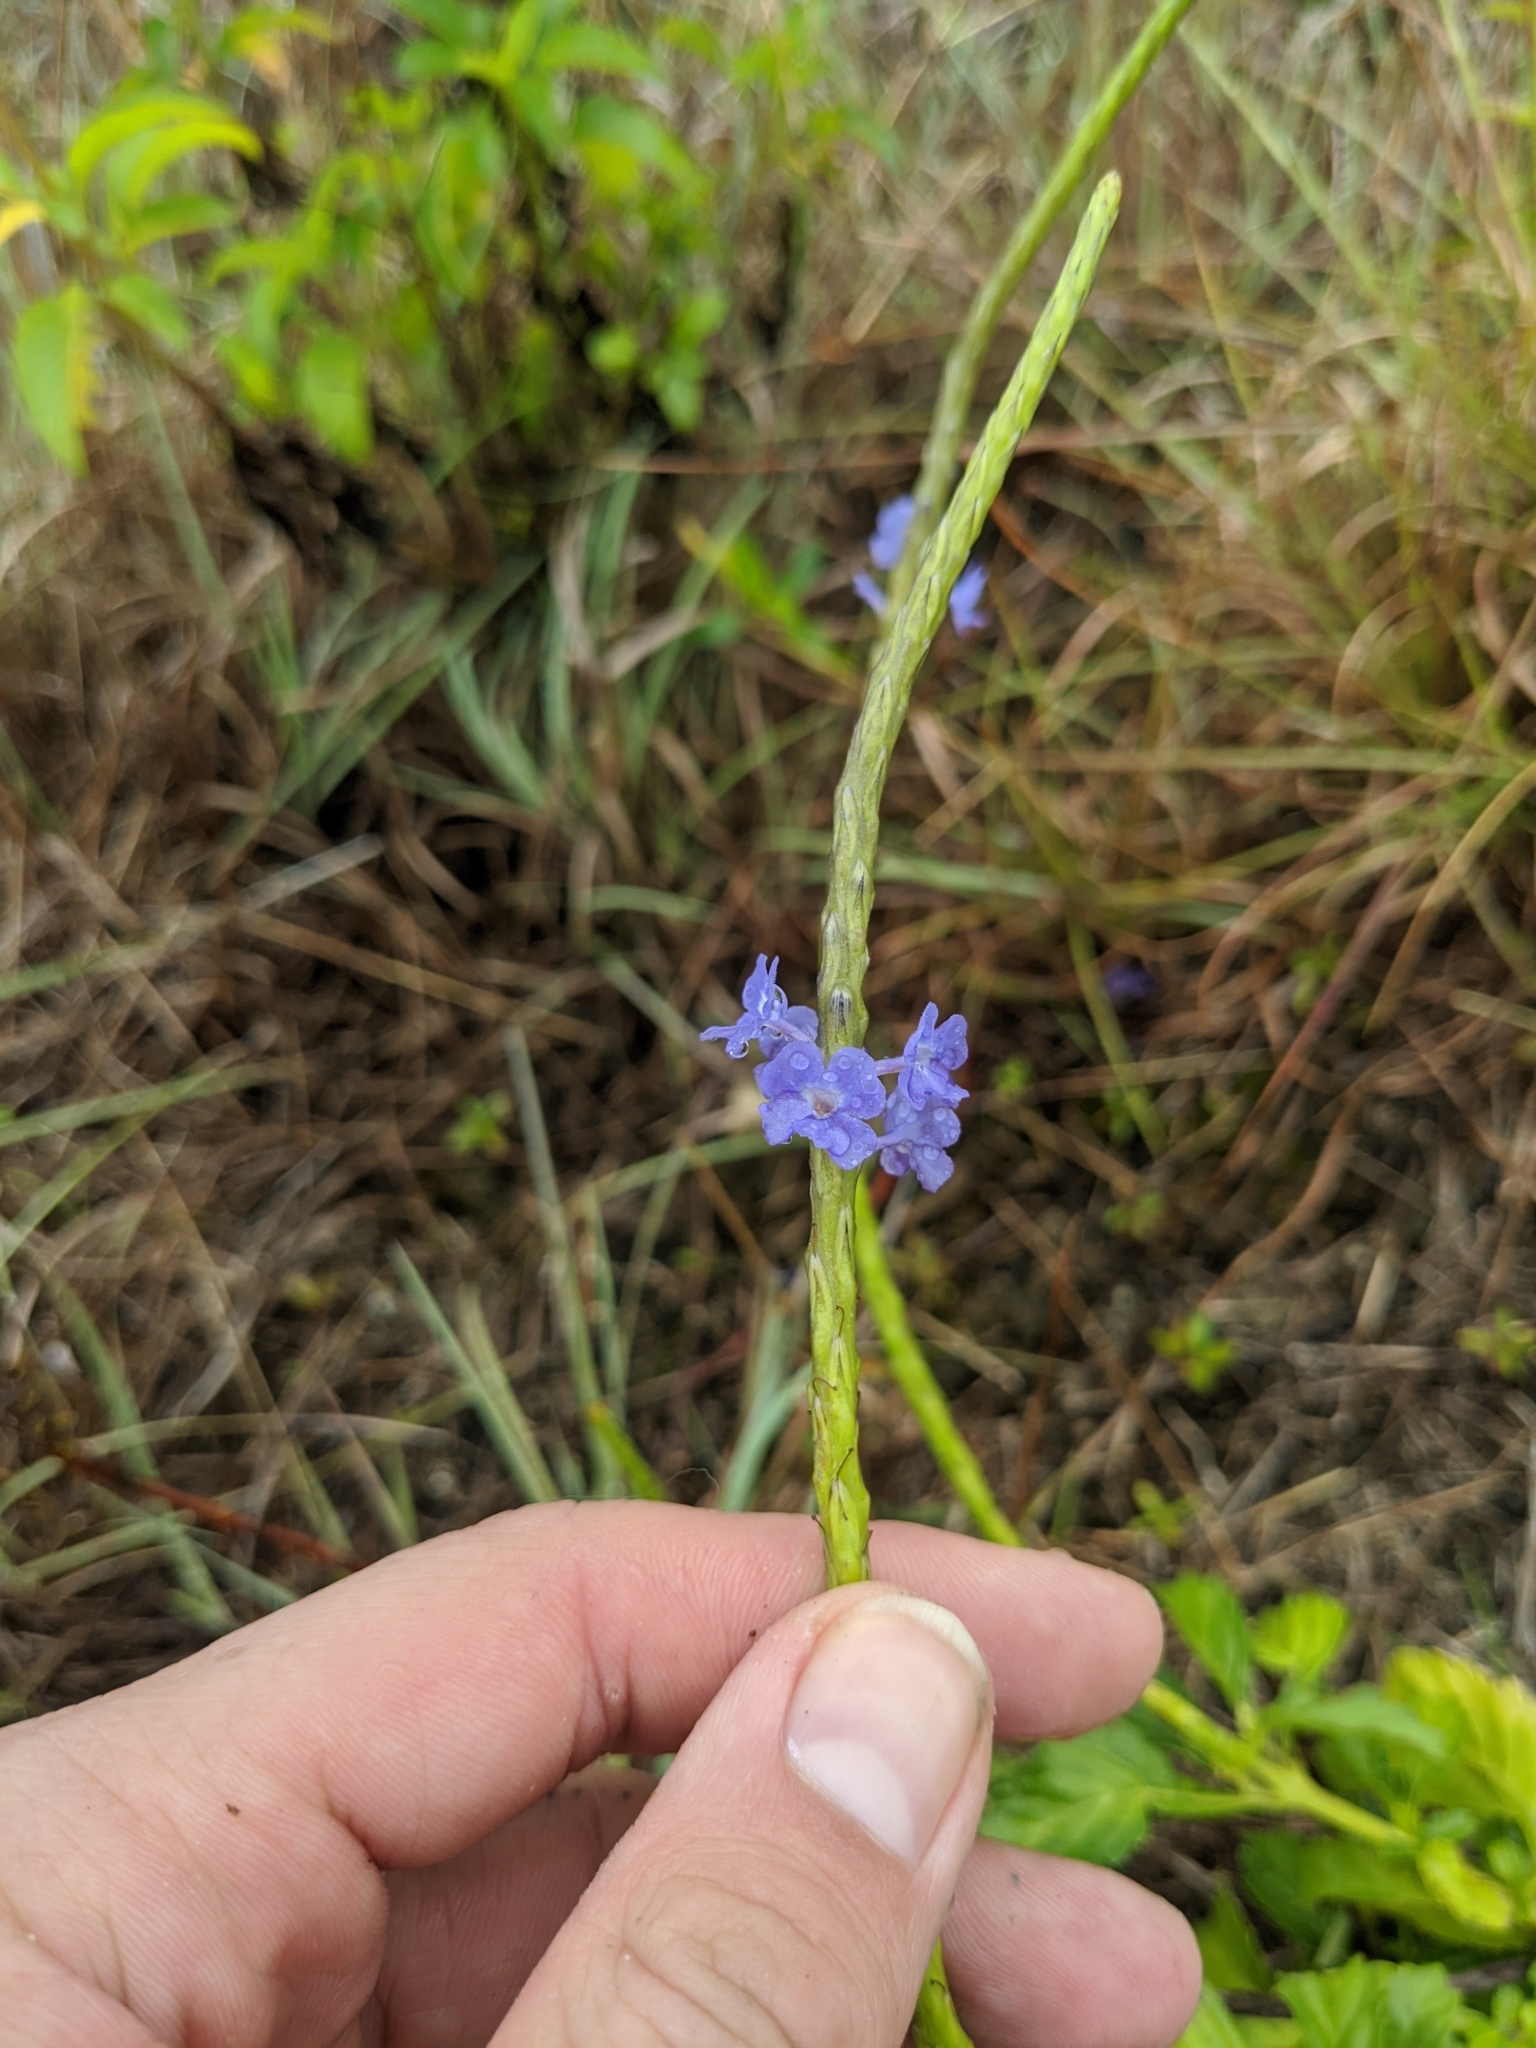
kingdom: Plantae
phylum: Tracheophyta
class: Magnoliopsida
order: Lamiales
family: Verbenaceae
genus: Stachytarpheta
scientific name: Stachytarpheta jamaicensis
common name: Light-blue snakeweed
